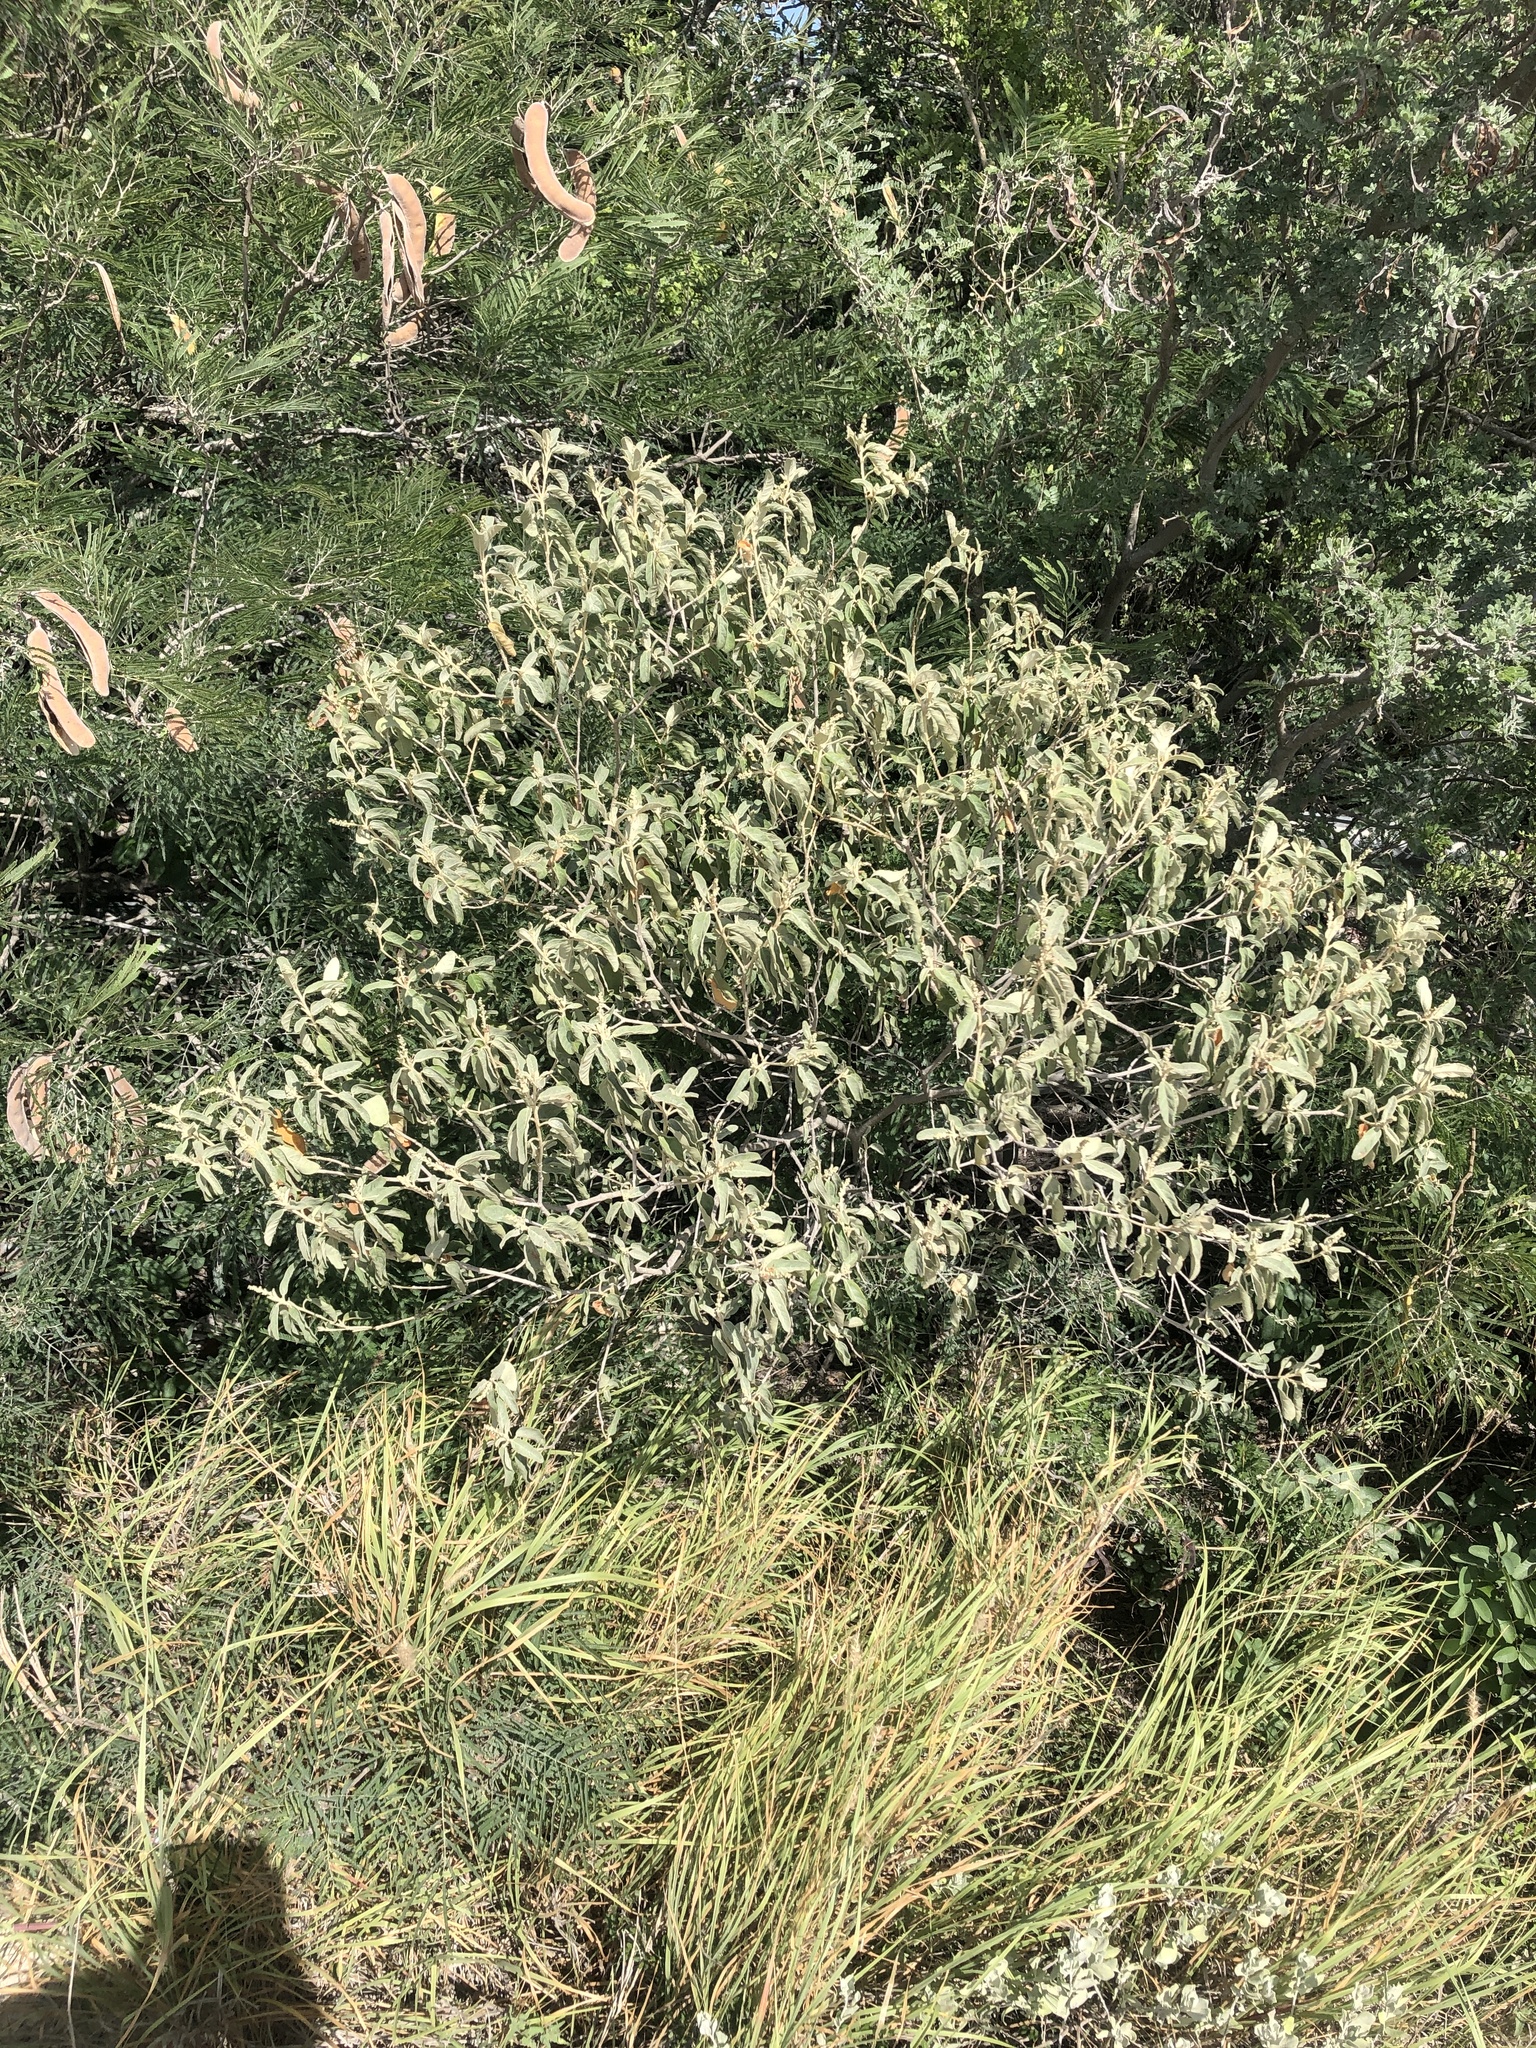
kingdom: Plantae
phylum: Tracheophyta
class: Magnoliopsida
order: Malpighiales
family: Euphorbiaceae
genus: Croton
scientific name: Croton incanus
